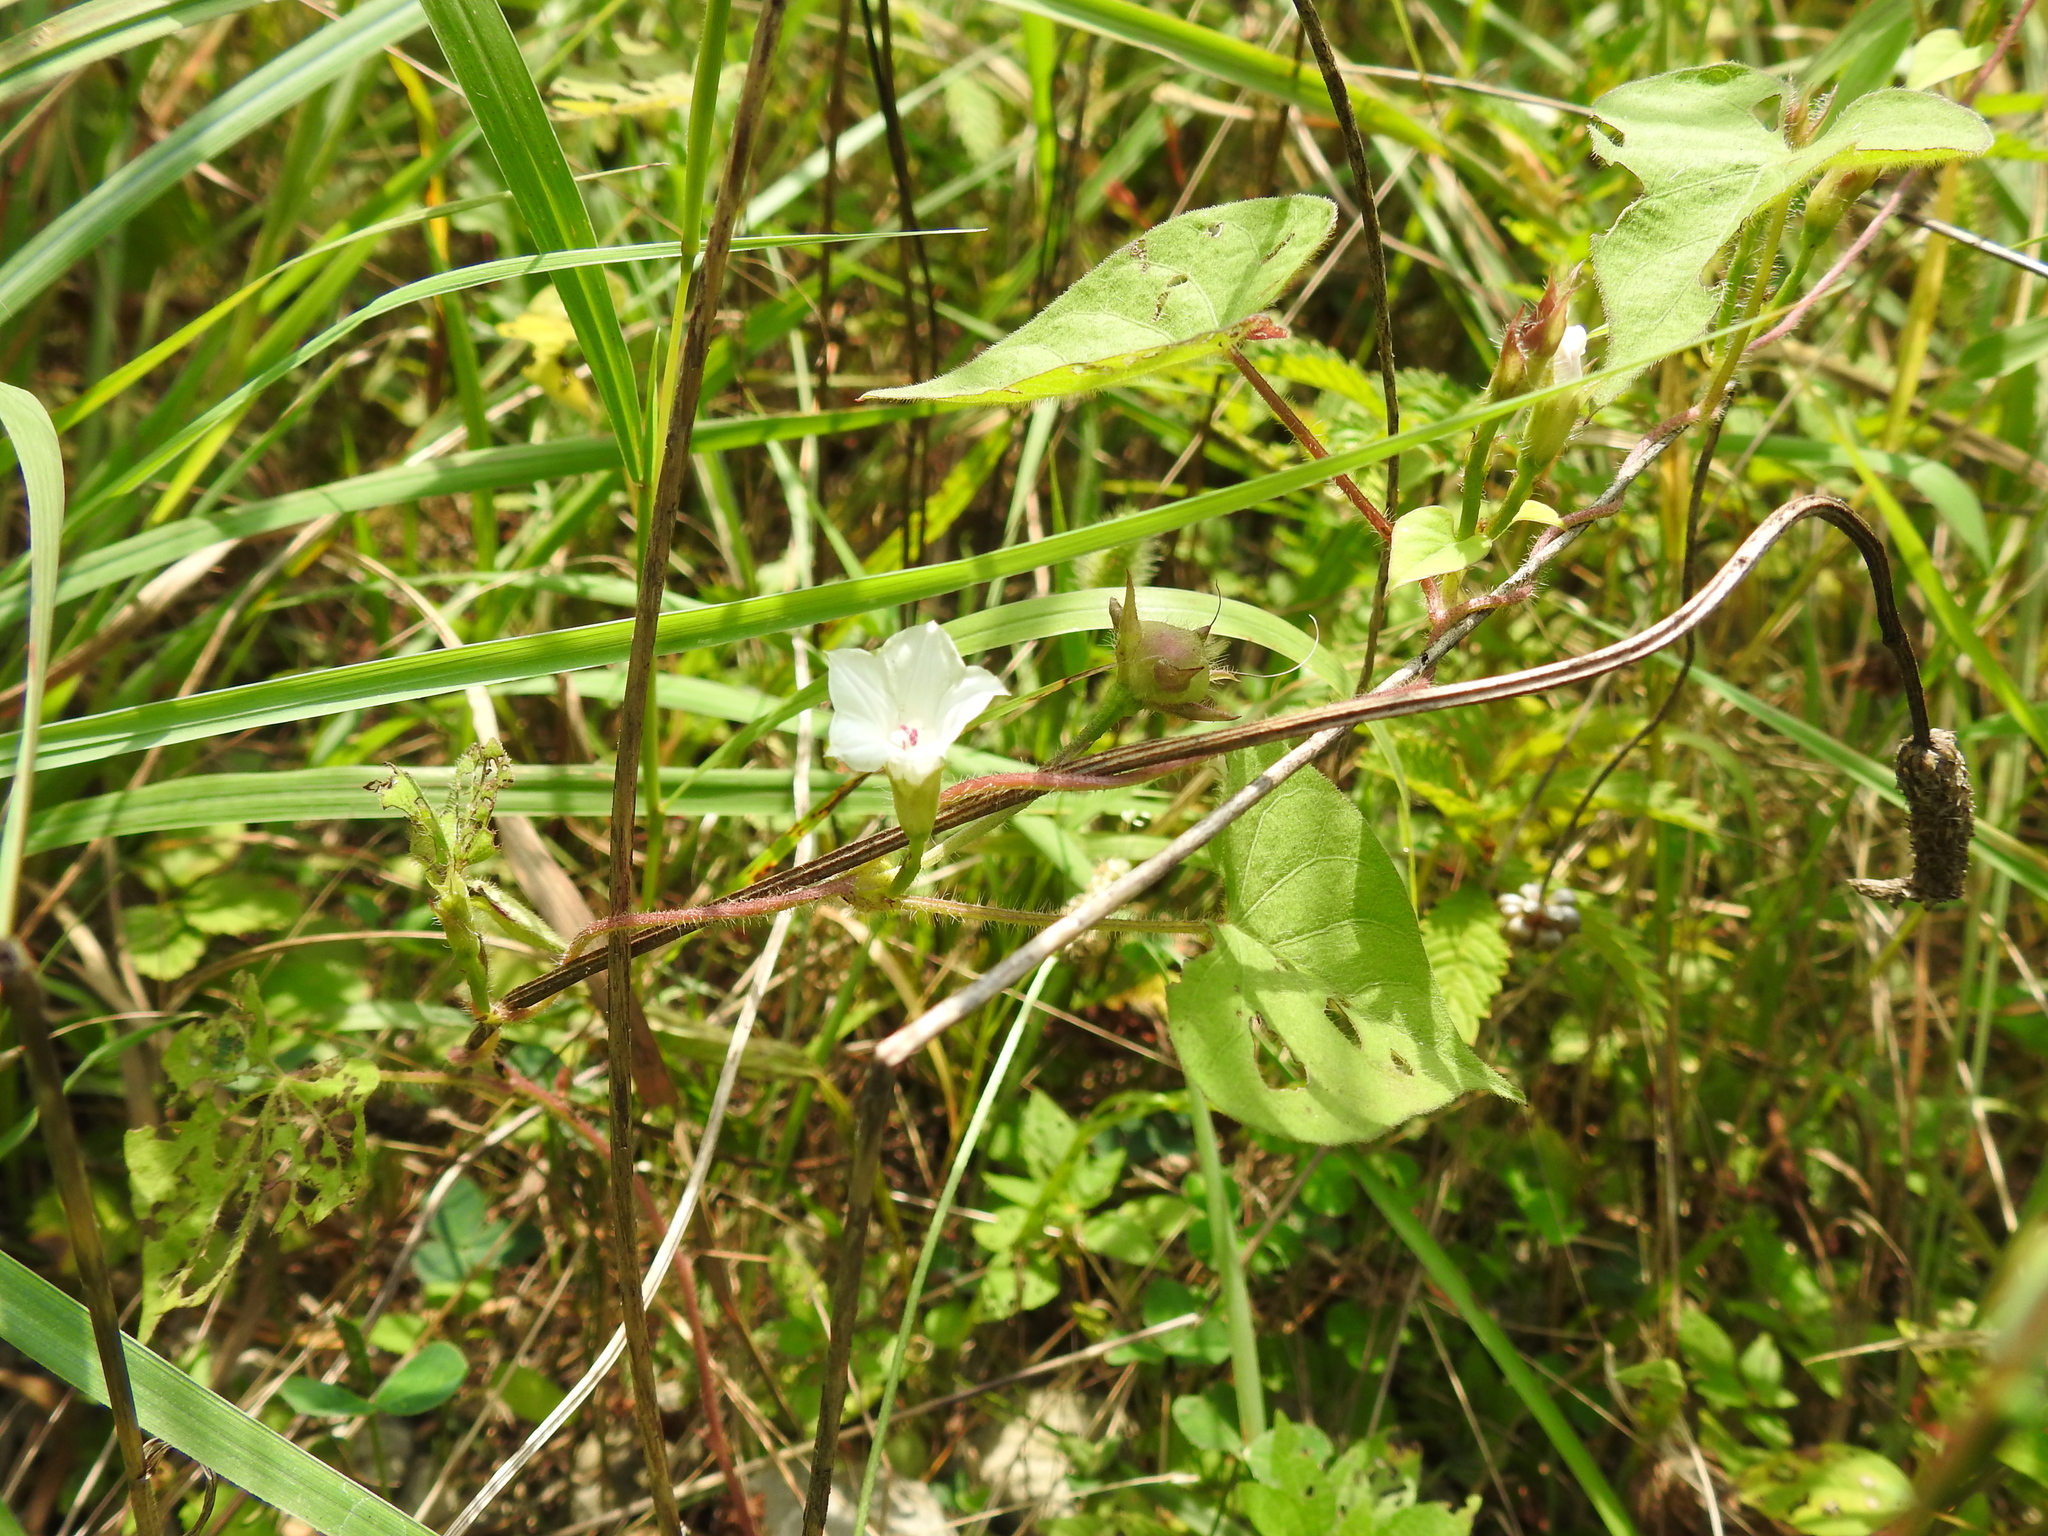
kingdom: Plantae
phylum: Tracheophyta
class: Magnoliopsida
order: Solanales
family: Convolvulaceae
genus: Ipomoea
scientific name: Ipomoea lacunosa
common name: White morning-glory
